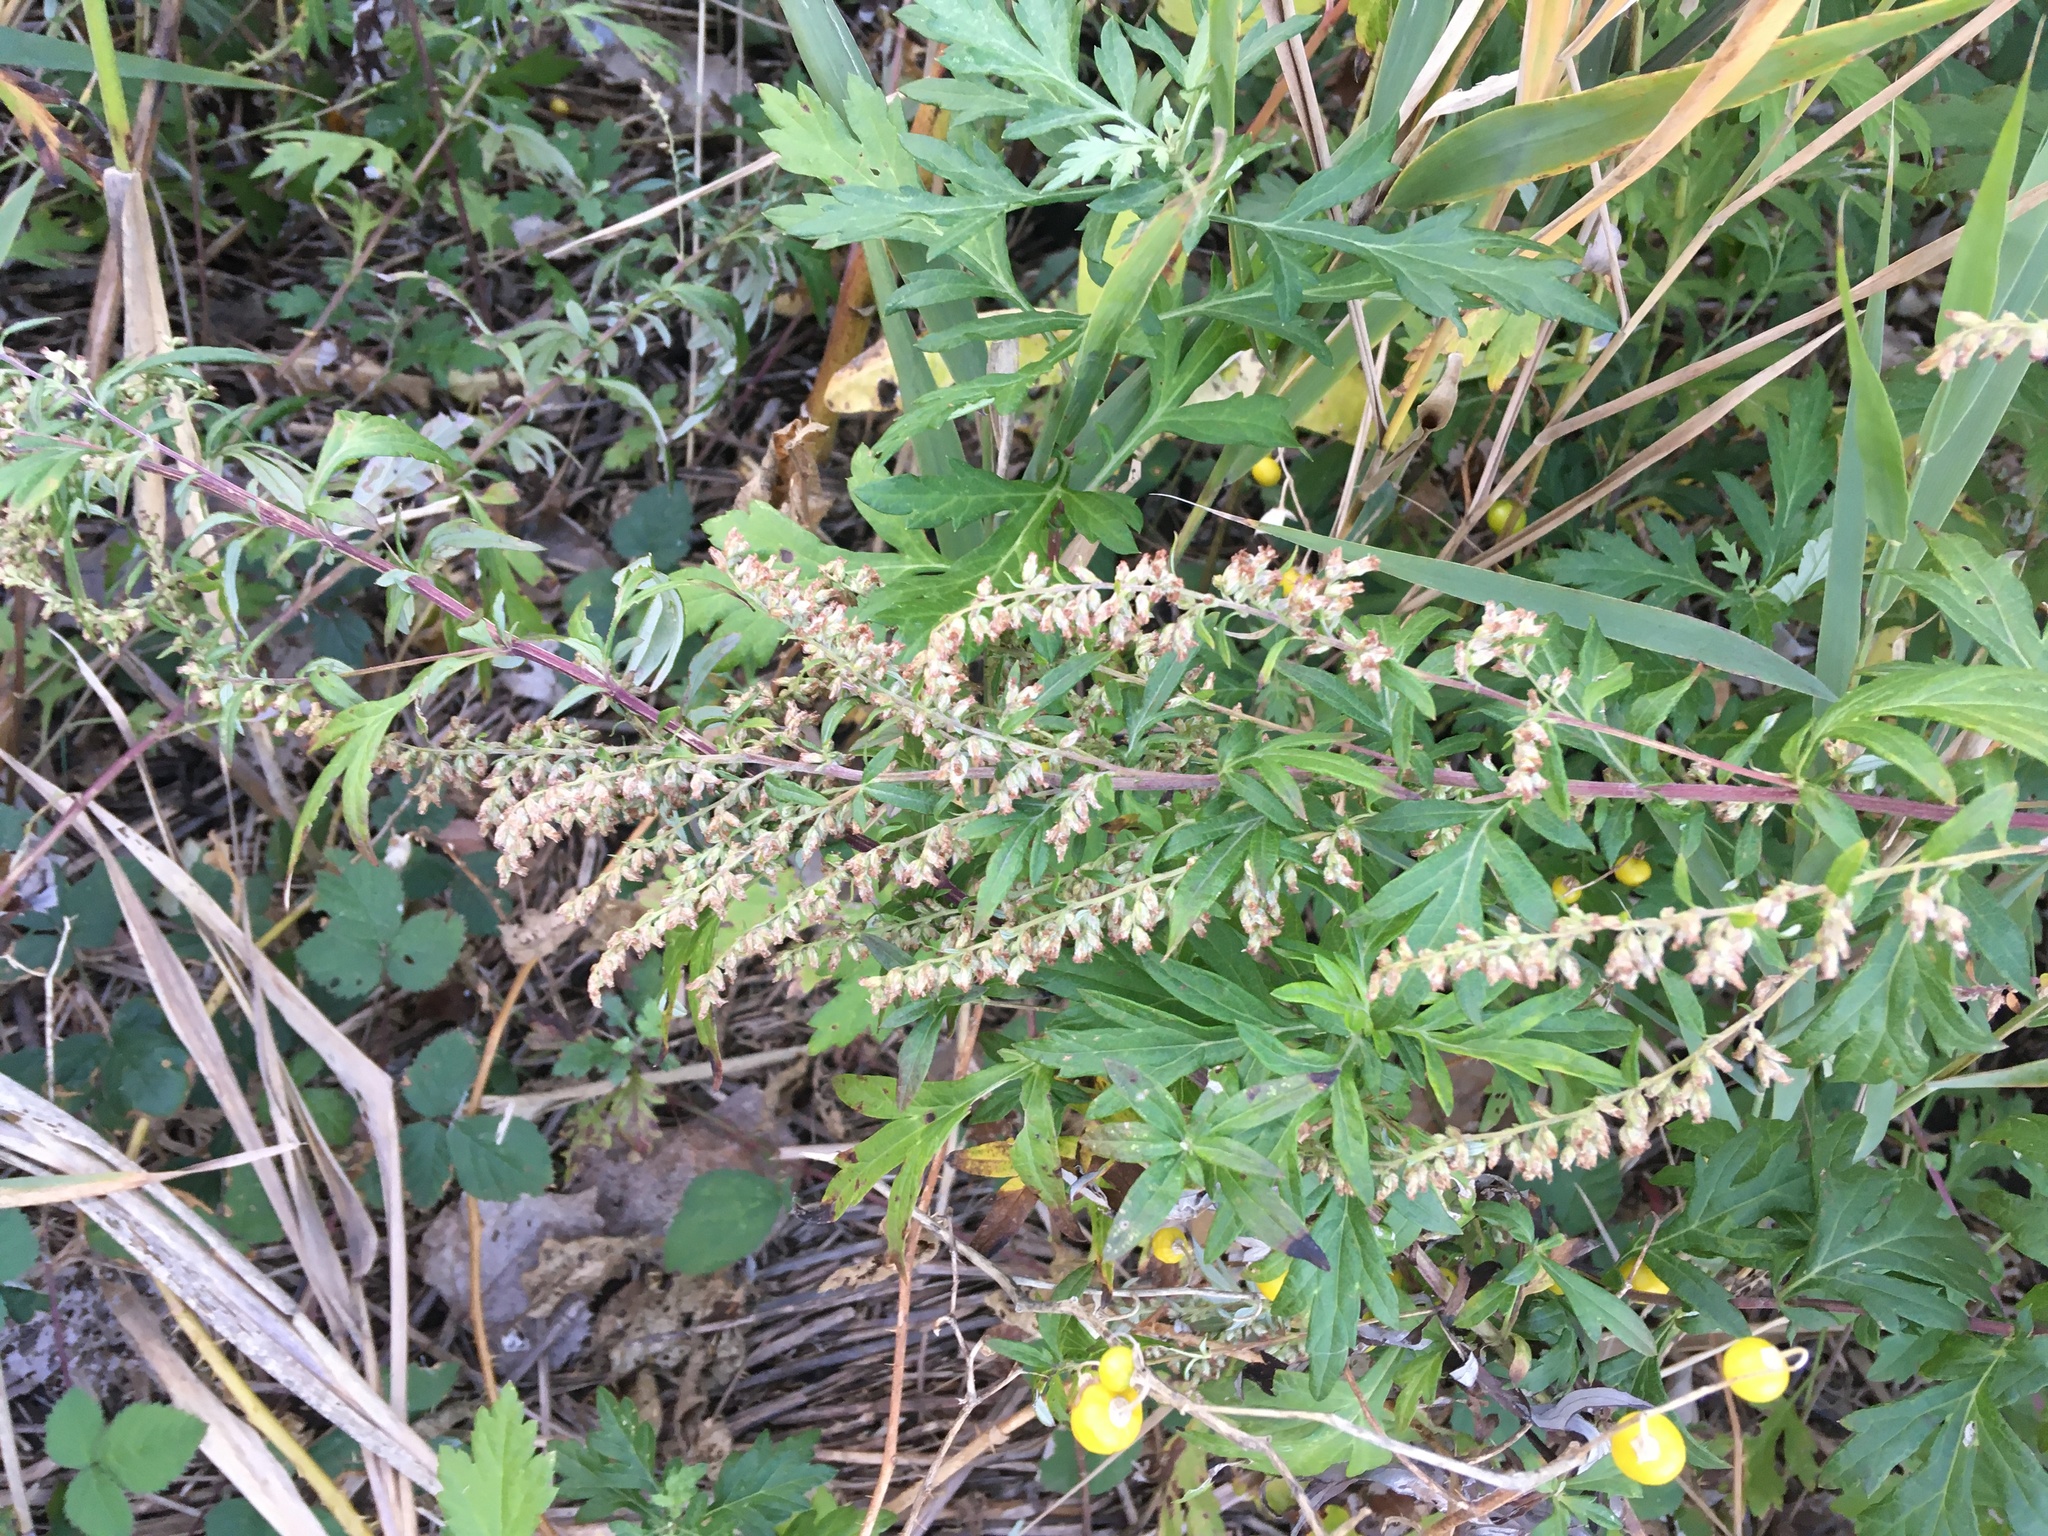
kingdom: Plantae
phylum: Tracheophyta
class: Magnoliopsida
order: Asterales
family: Asteraceae
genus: Artemisia
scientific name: Artemisia vulgaris
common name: Mugwort
